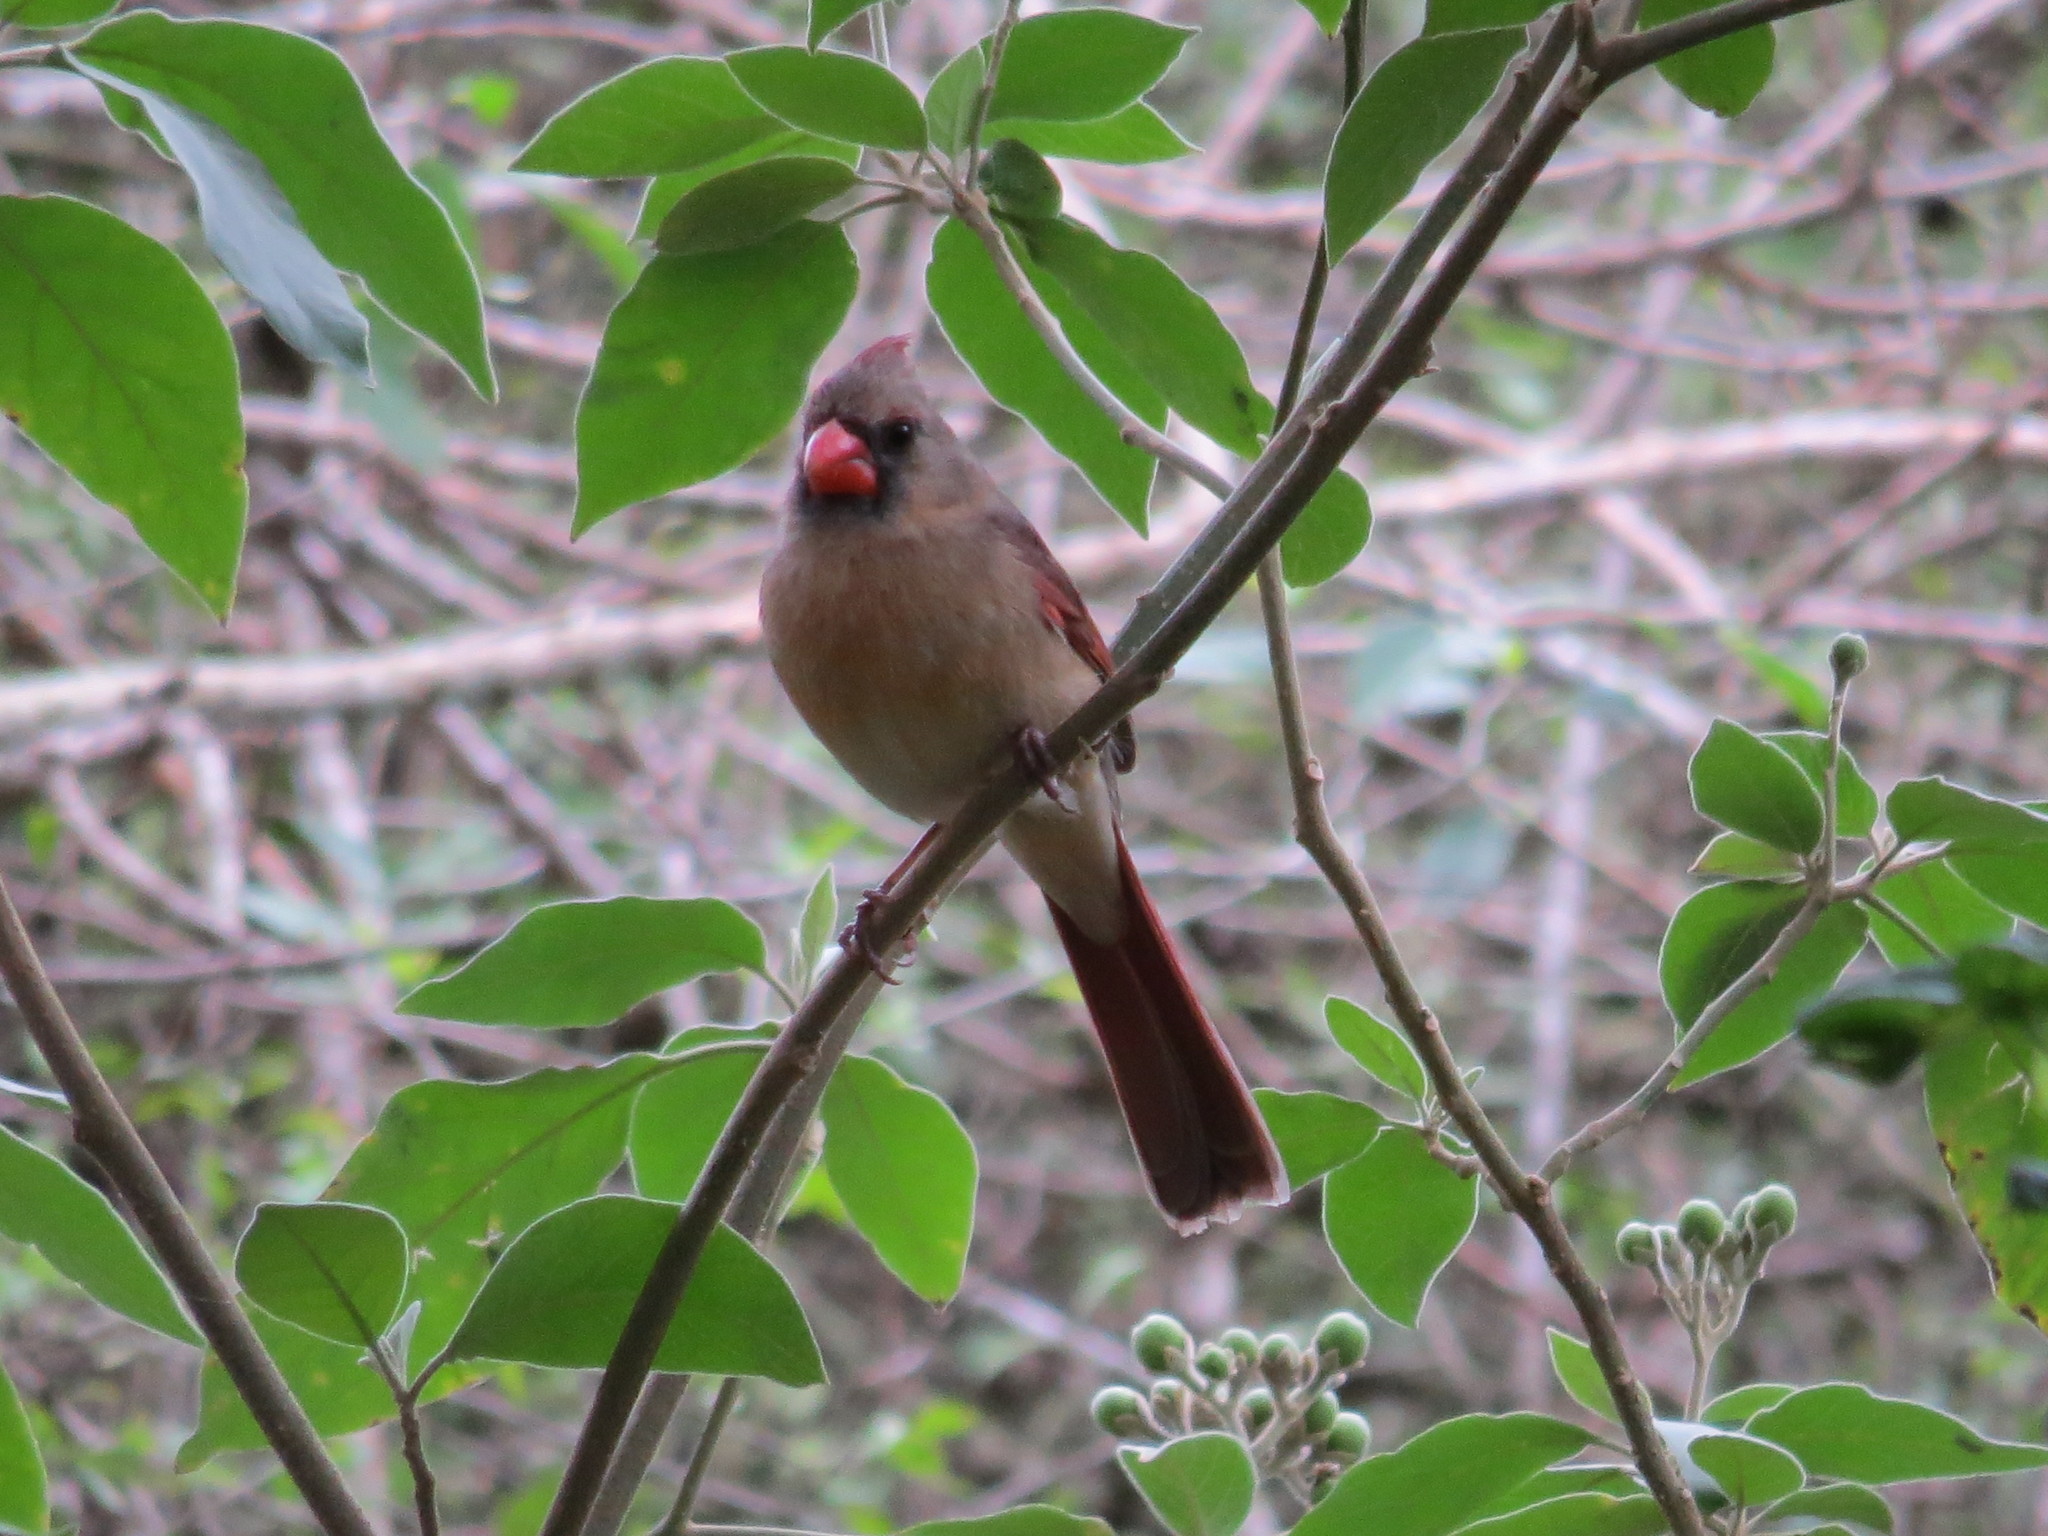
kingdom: Animalia
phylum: Chordata
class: Aves
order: Passeriformes
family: Cardinalidae
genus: Cardinalis
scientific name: Cardinalis cardinalis
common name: Northern cardinal
